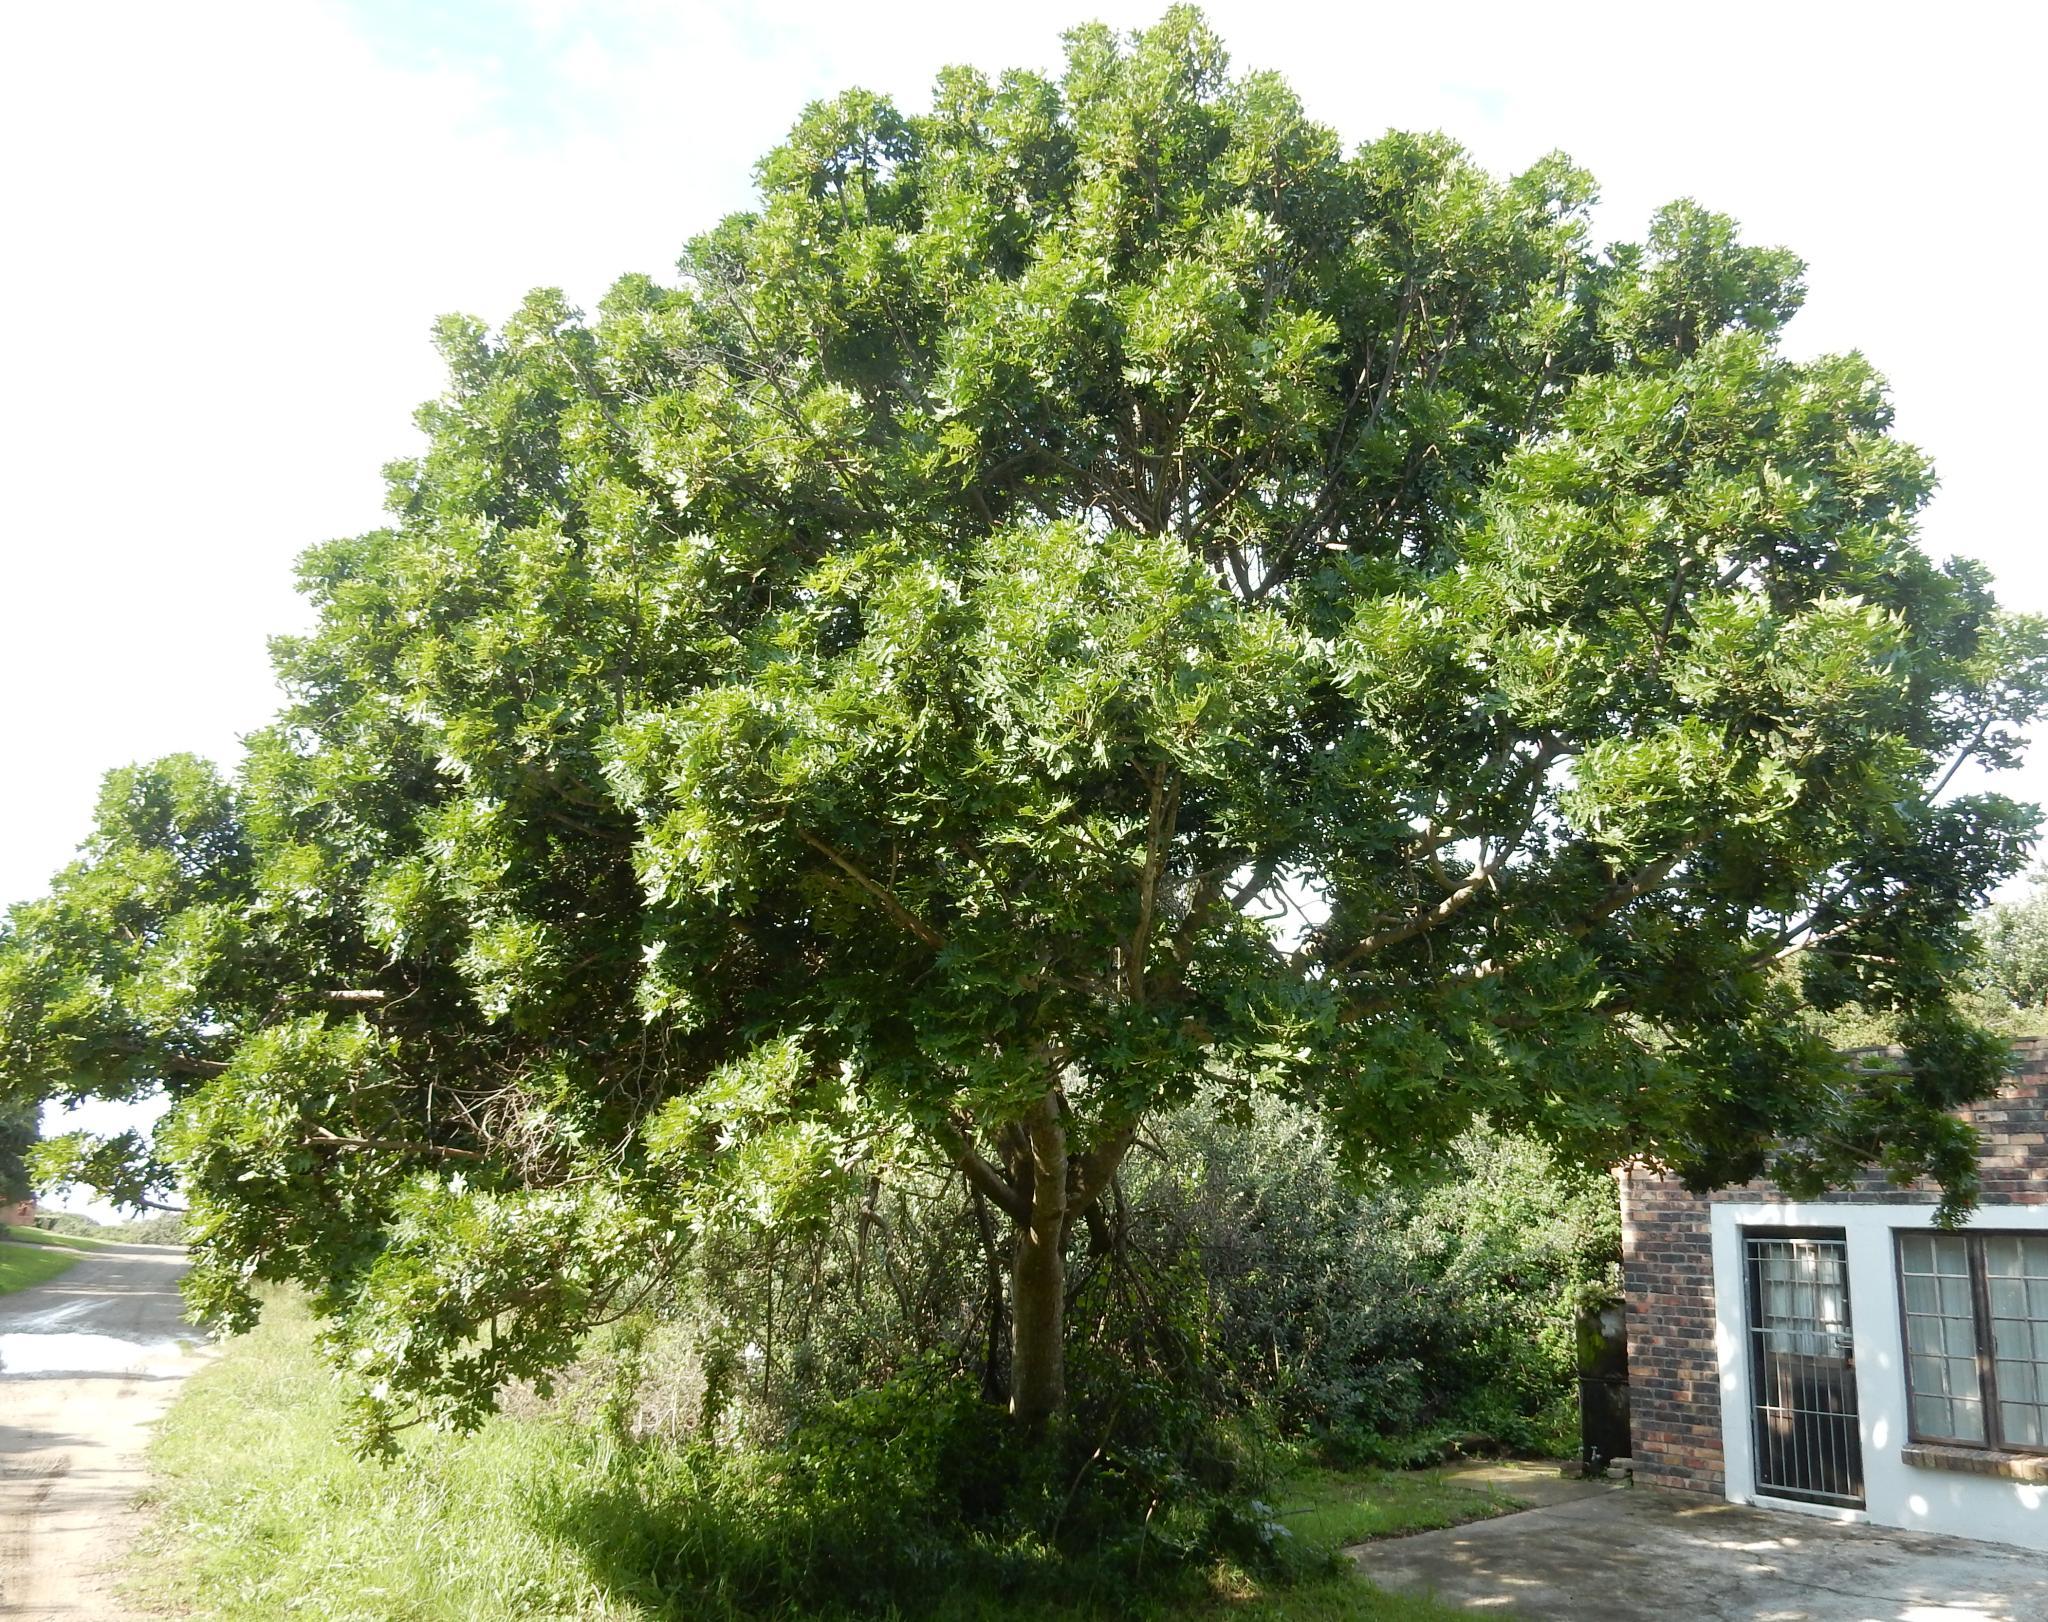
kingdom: Plantae
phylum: Tracheophyta
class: Magnoliopsida
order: Sapindales
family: Anacardiaceae
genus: Harpephyllum
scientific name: Harpephyllum caffrum
